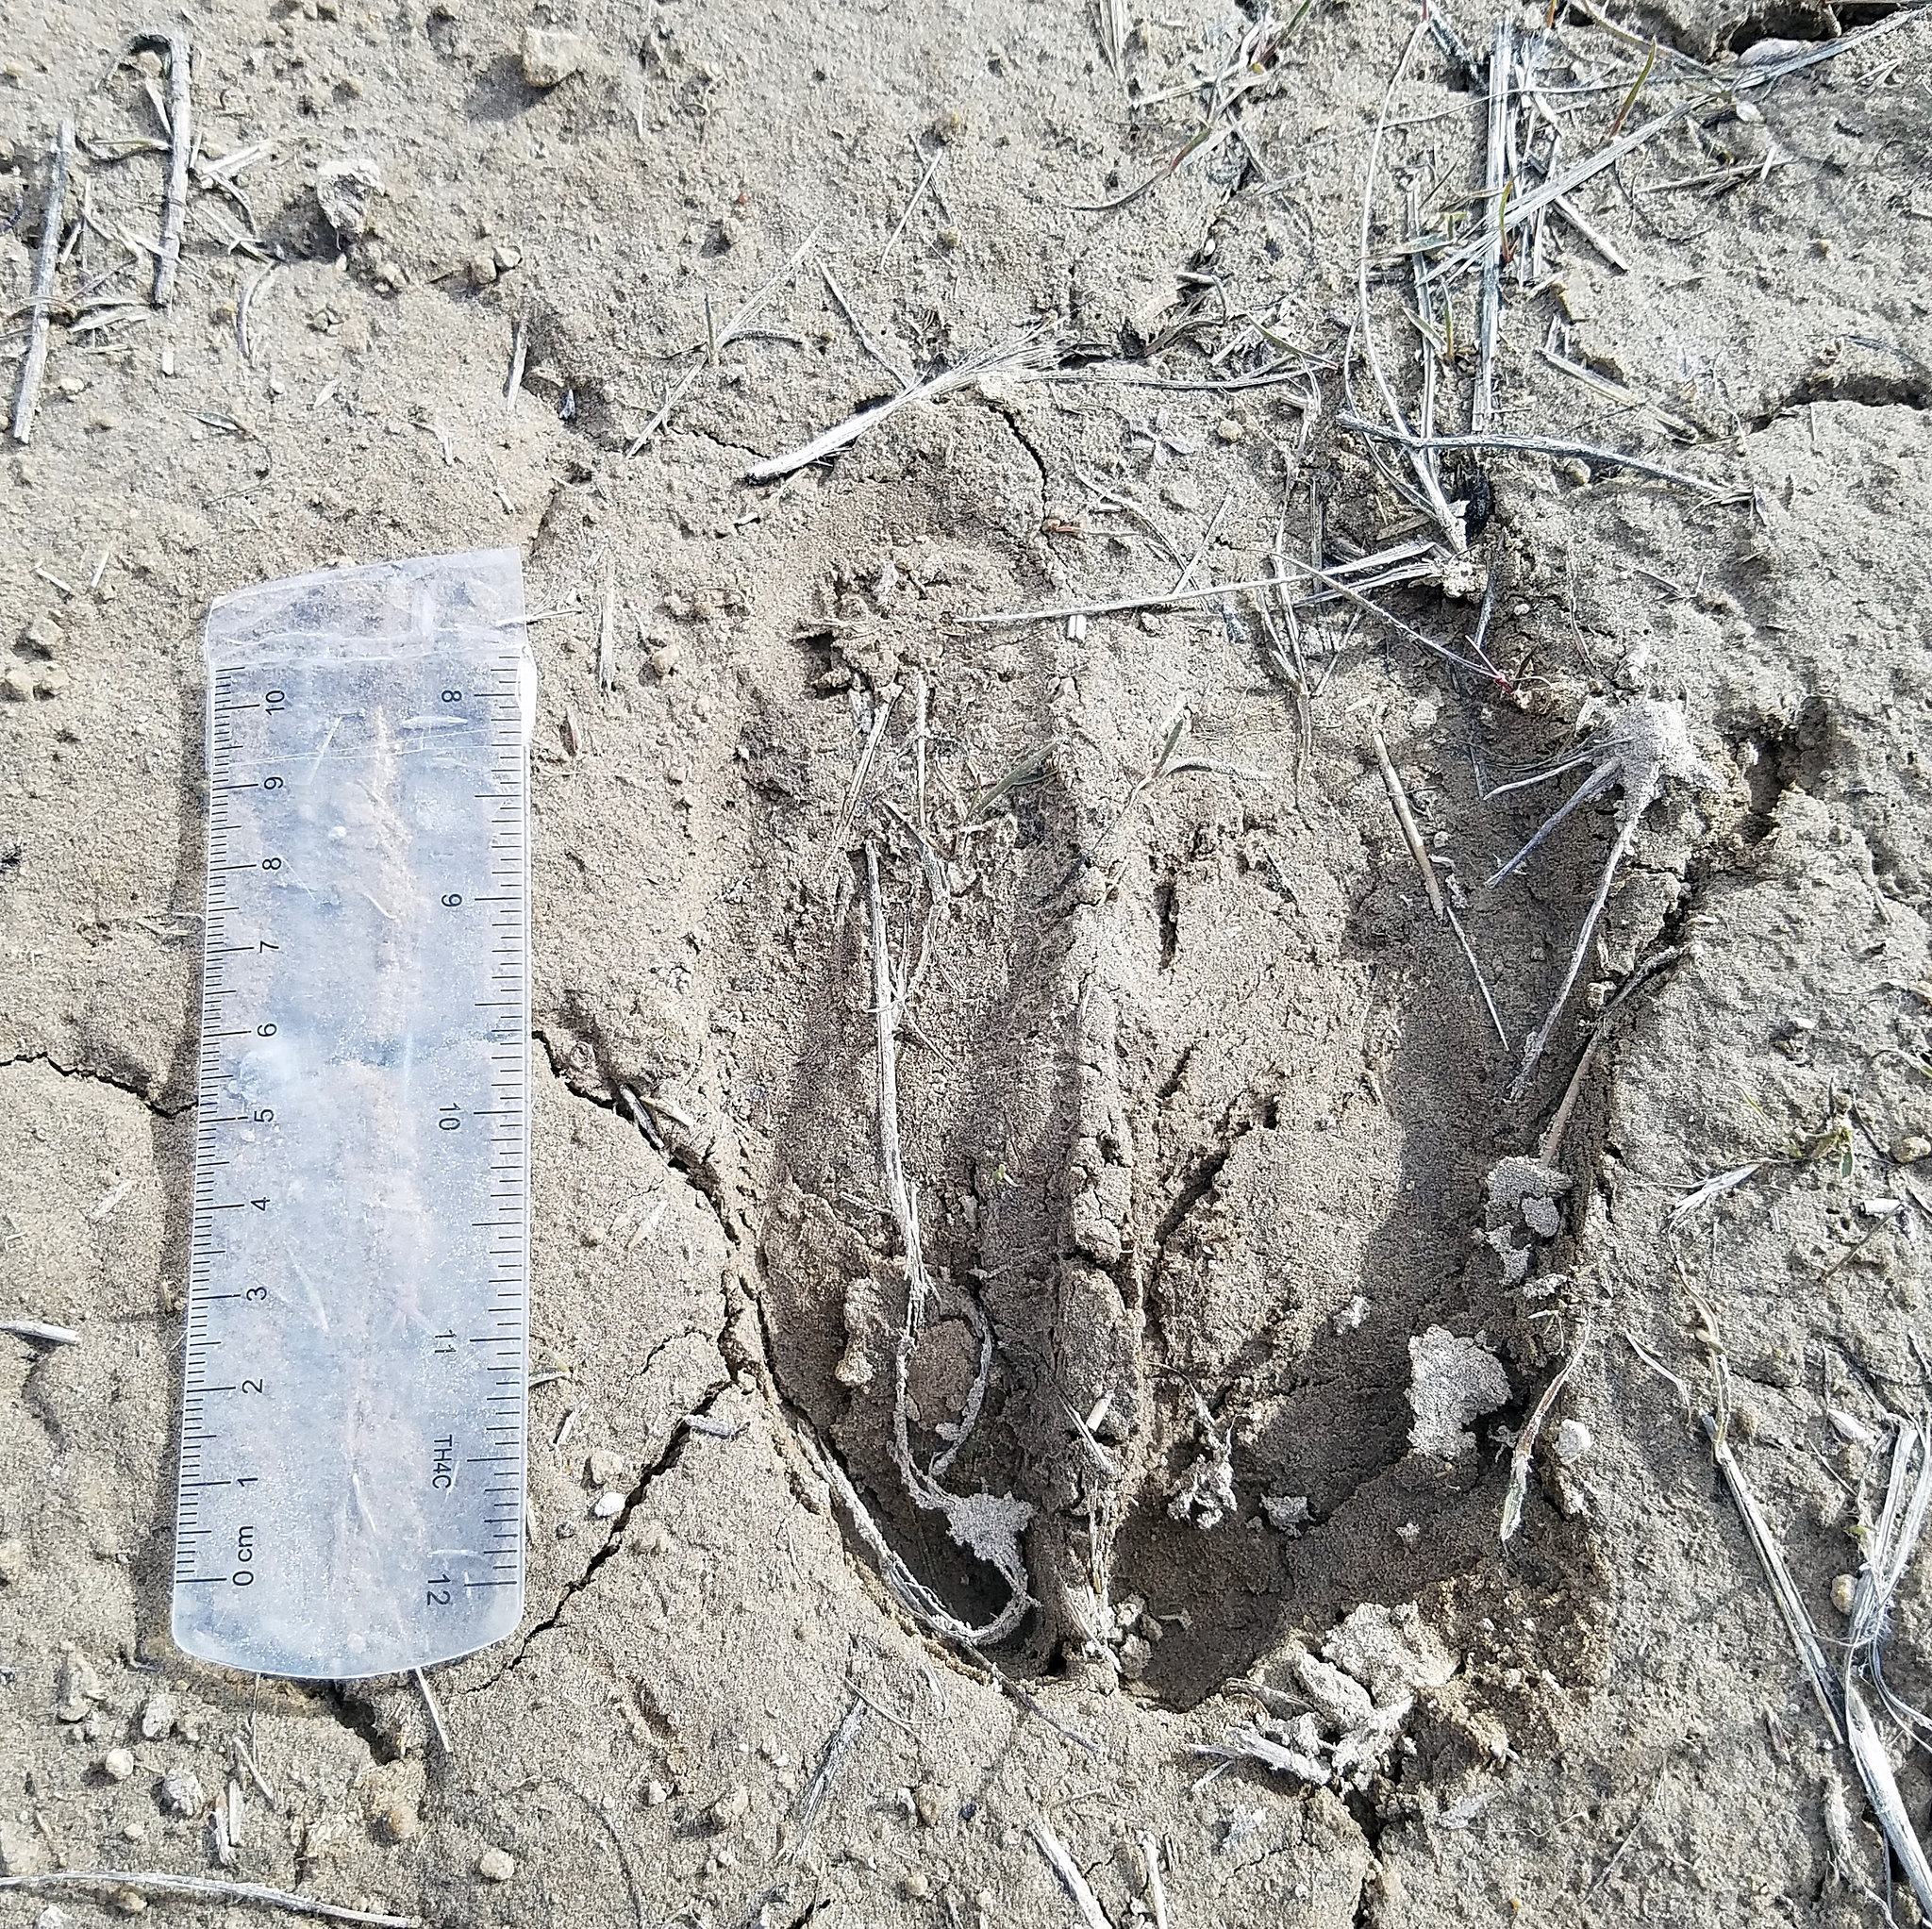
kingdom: Animalia
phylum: Chordata
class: Mammalia
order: Artiodactyla
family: Cervidae
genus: Alces
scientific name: Alces alces
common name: Moose
